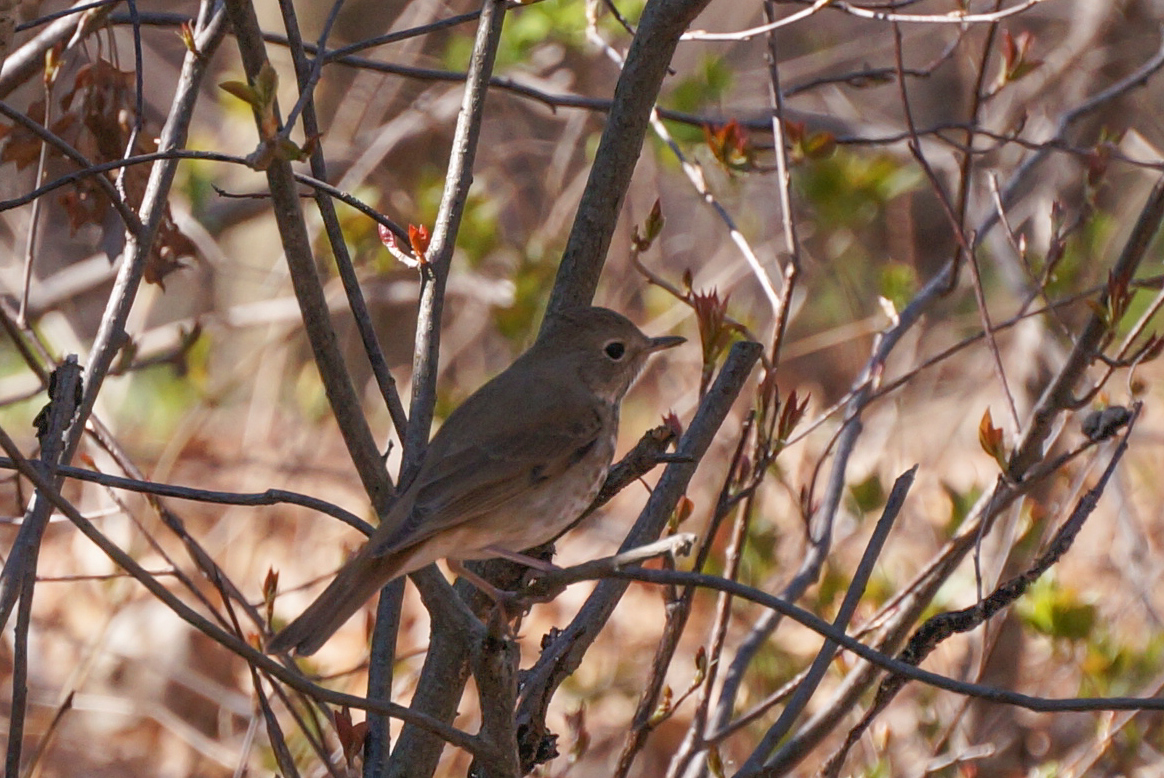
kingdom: Animalia
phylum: Chordata
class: Aves
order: Passeriformes
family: Turdidae
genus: Catharus
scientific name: Catharus guttatus
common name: Hermit thrush
